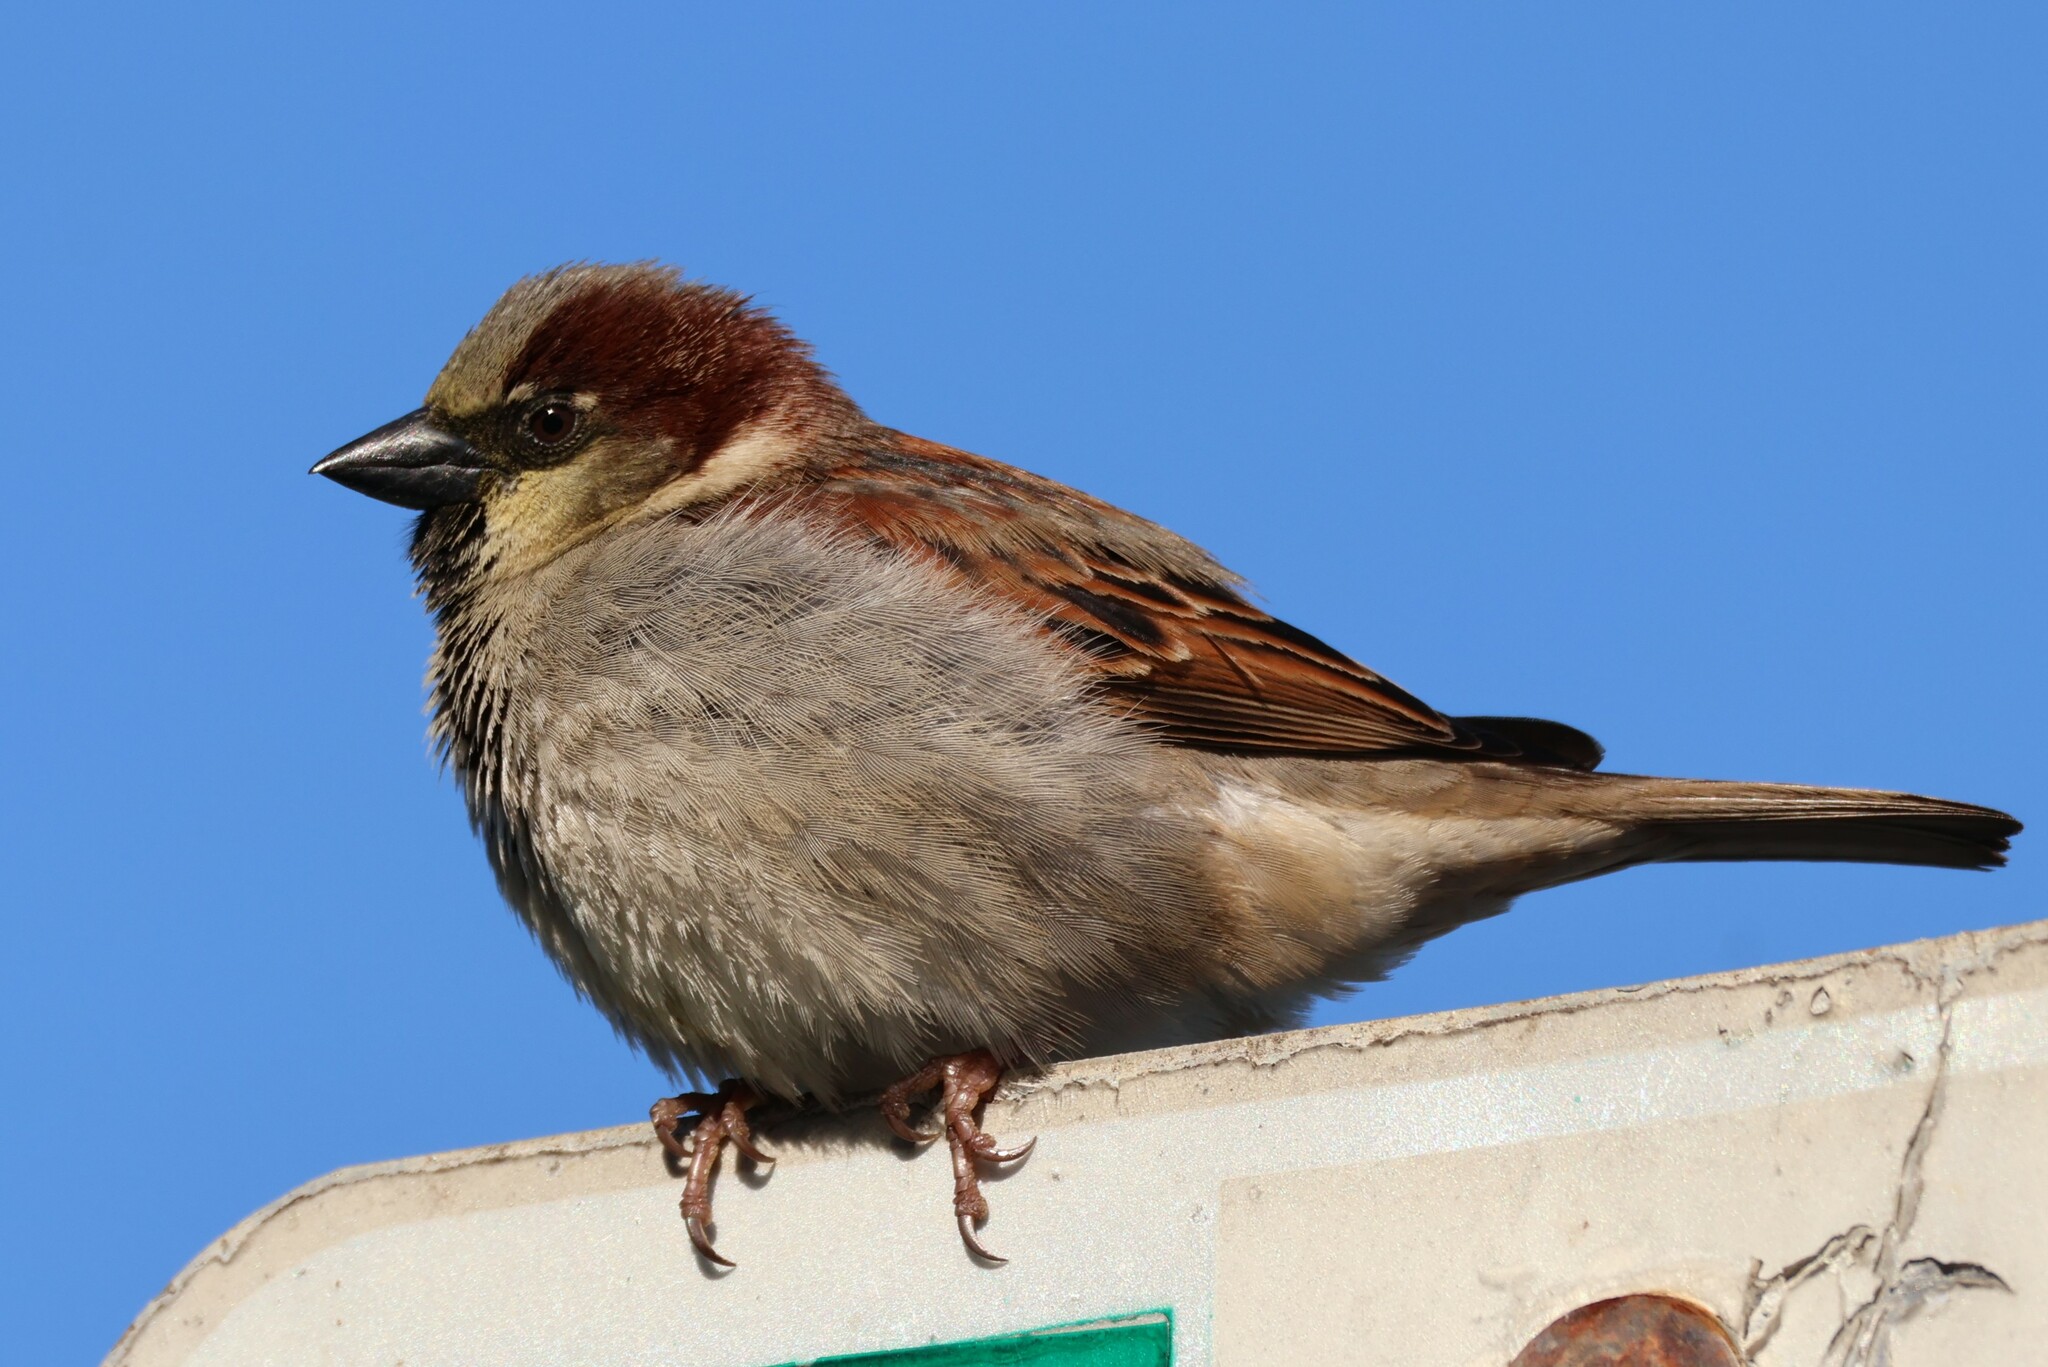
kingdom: Animalia
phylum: Chordata
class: Aves
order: Passeriformes
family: Passeridae
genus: Passer
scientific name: Passer domesticus
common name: House sparrow
